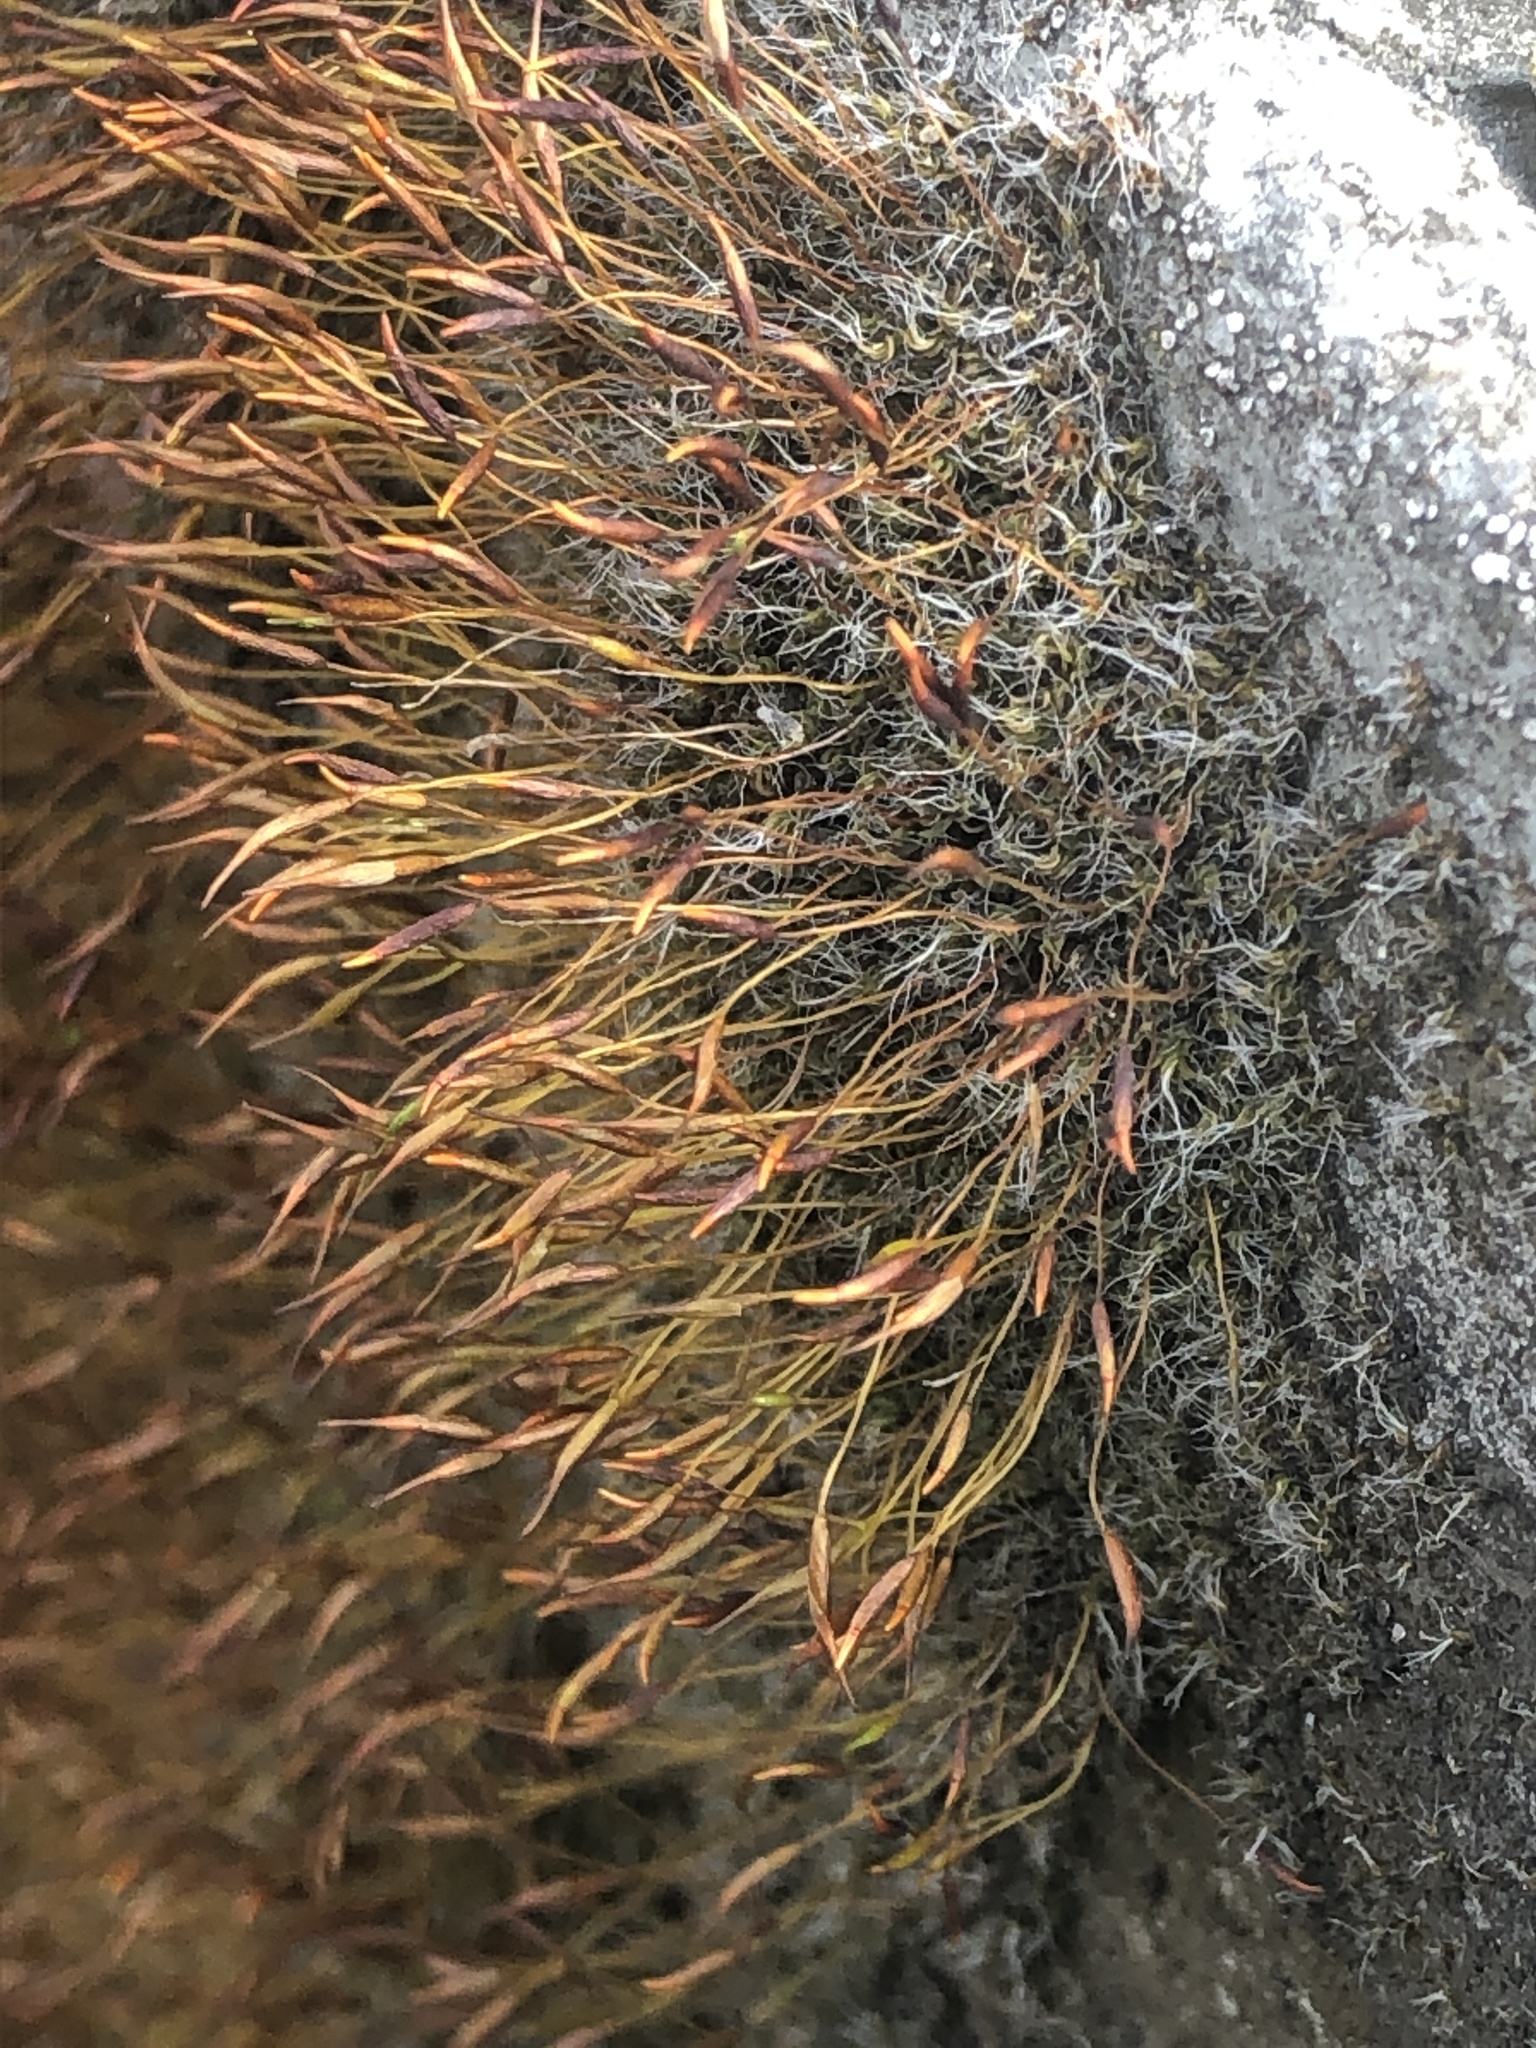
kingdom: Plantae
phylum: Bryophyta
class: Bryopsida
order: Pottiales
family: Pottiaceae
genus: Tortula
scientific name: Tortula muralis
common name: Wall screw-moss
